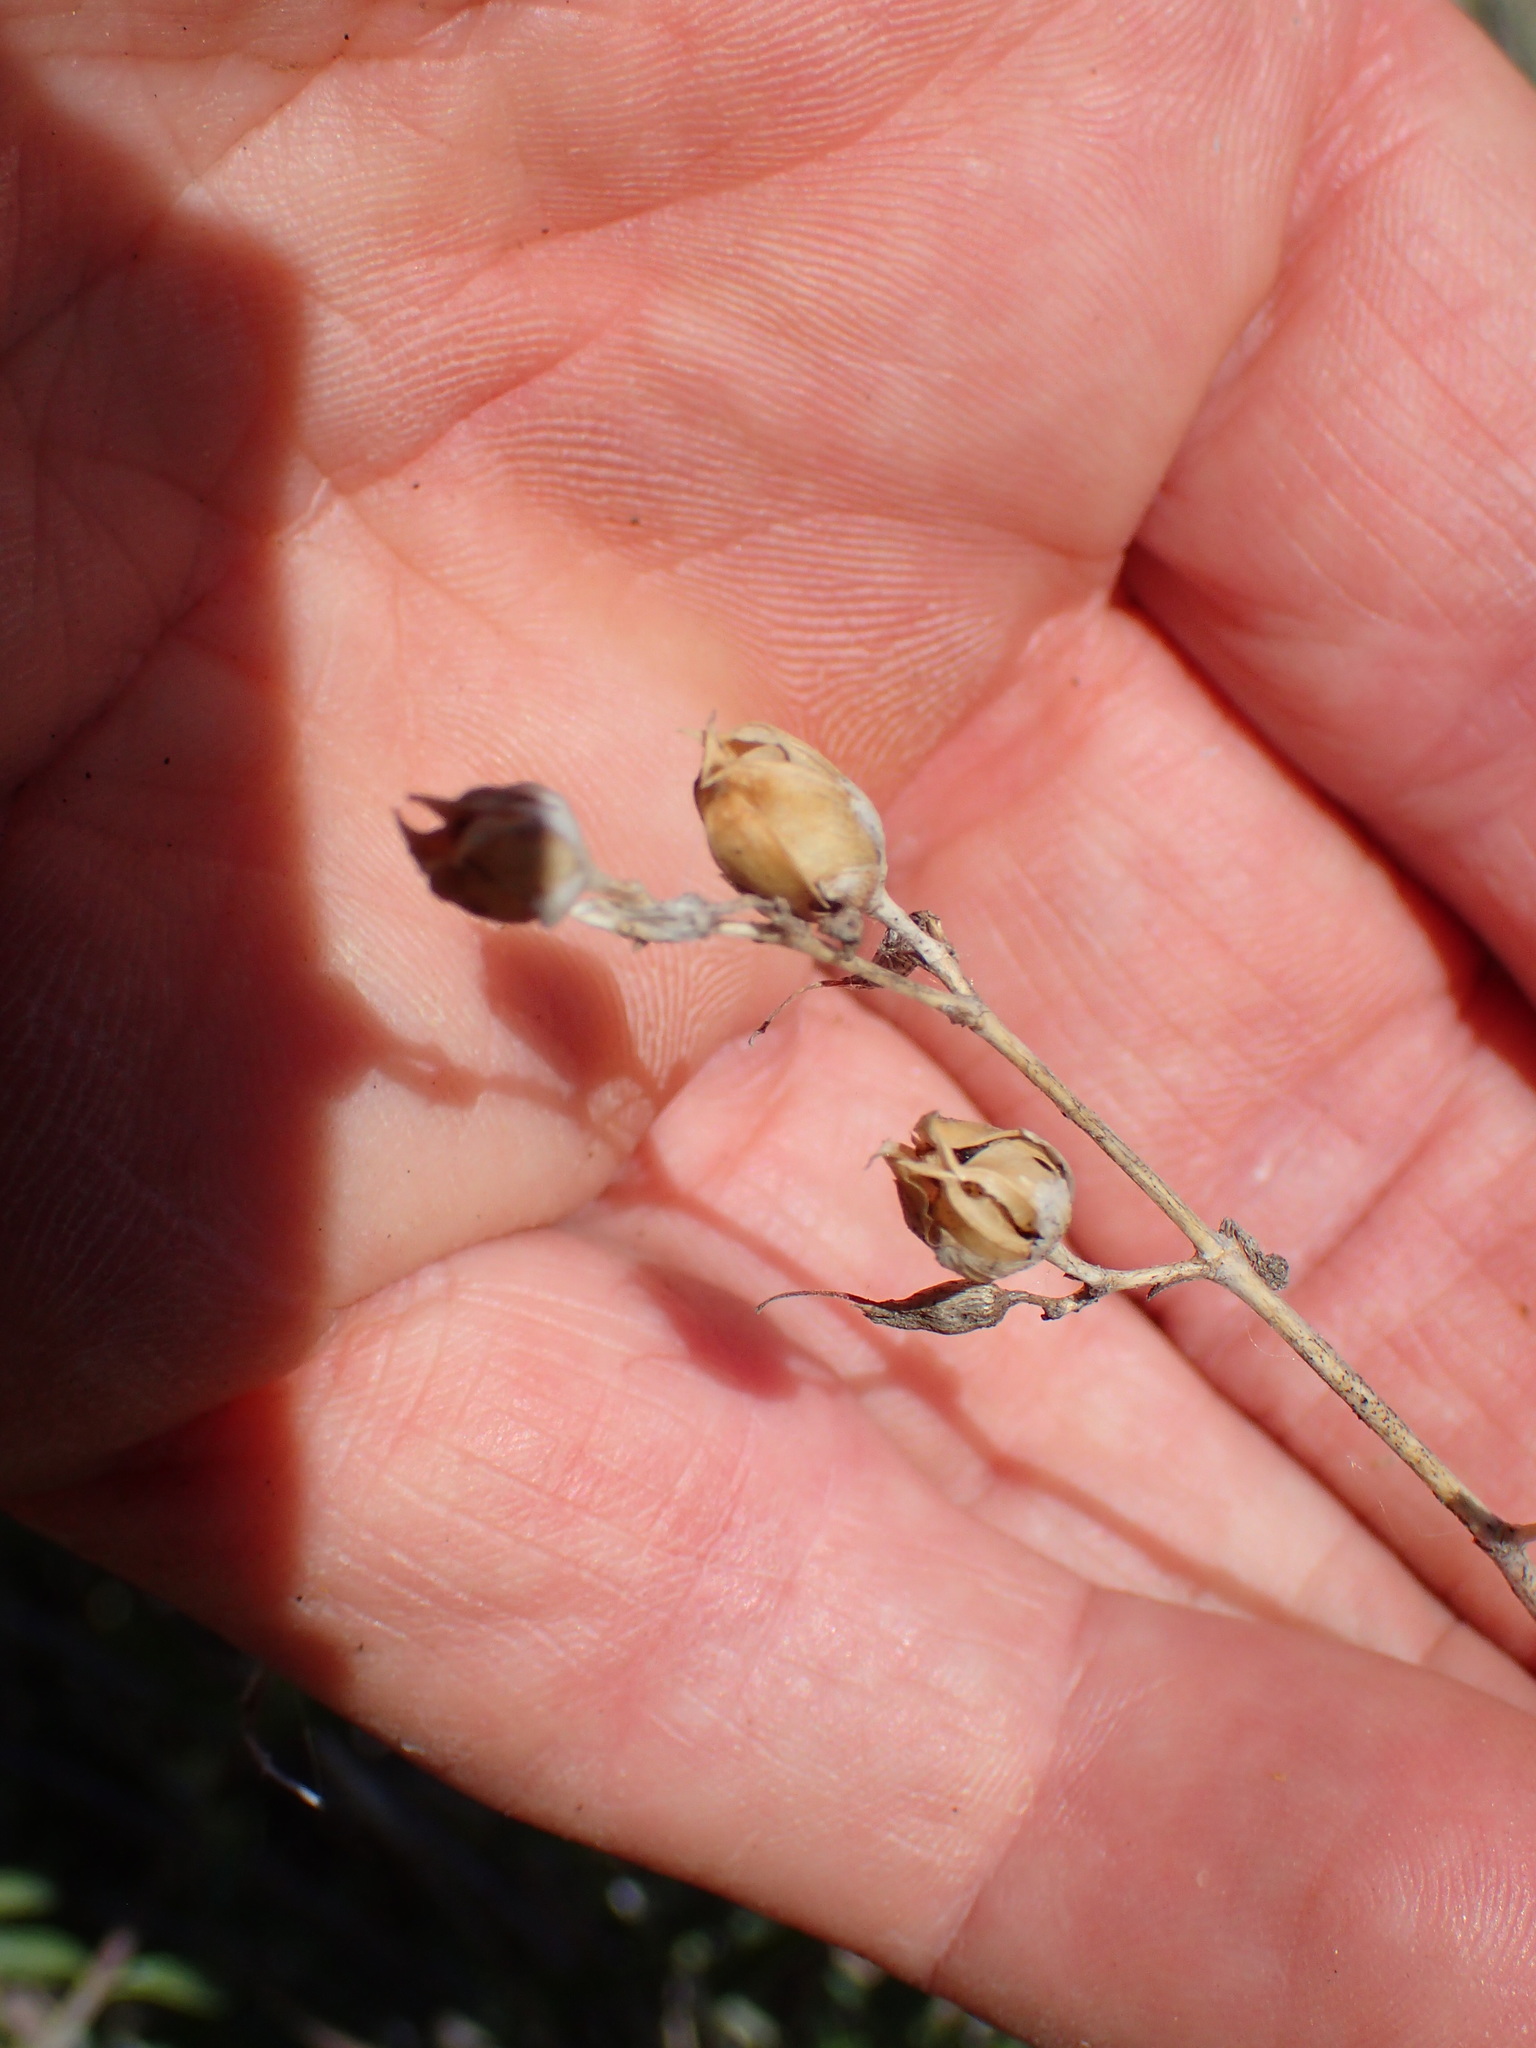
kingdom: Plantae
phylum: Tracheophyta
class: Magnoliopsida
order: Lamiales
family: Plantaginaceae
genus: Keckiella
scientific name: Keckiella ternata
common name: Scarlet keckiella
